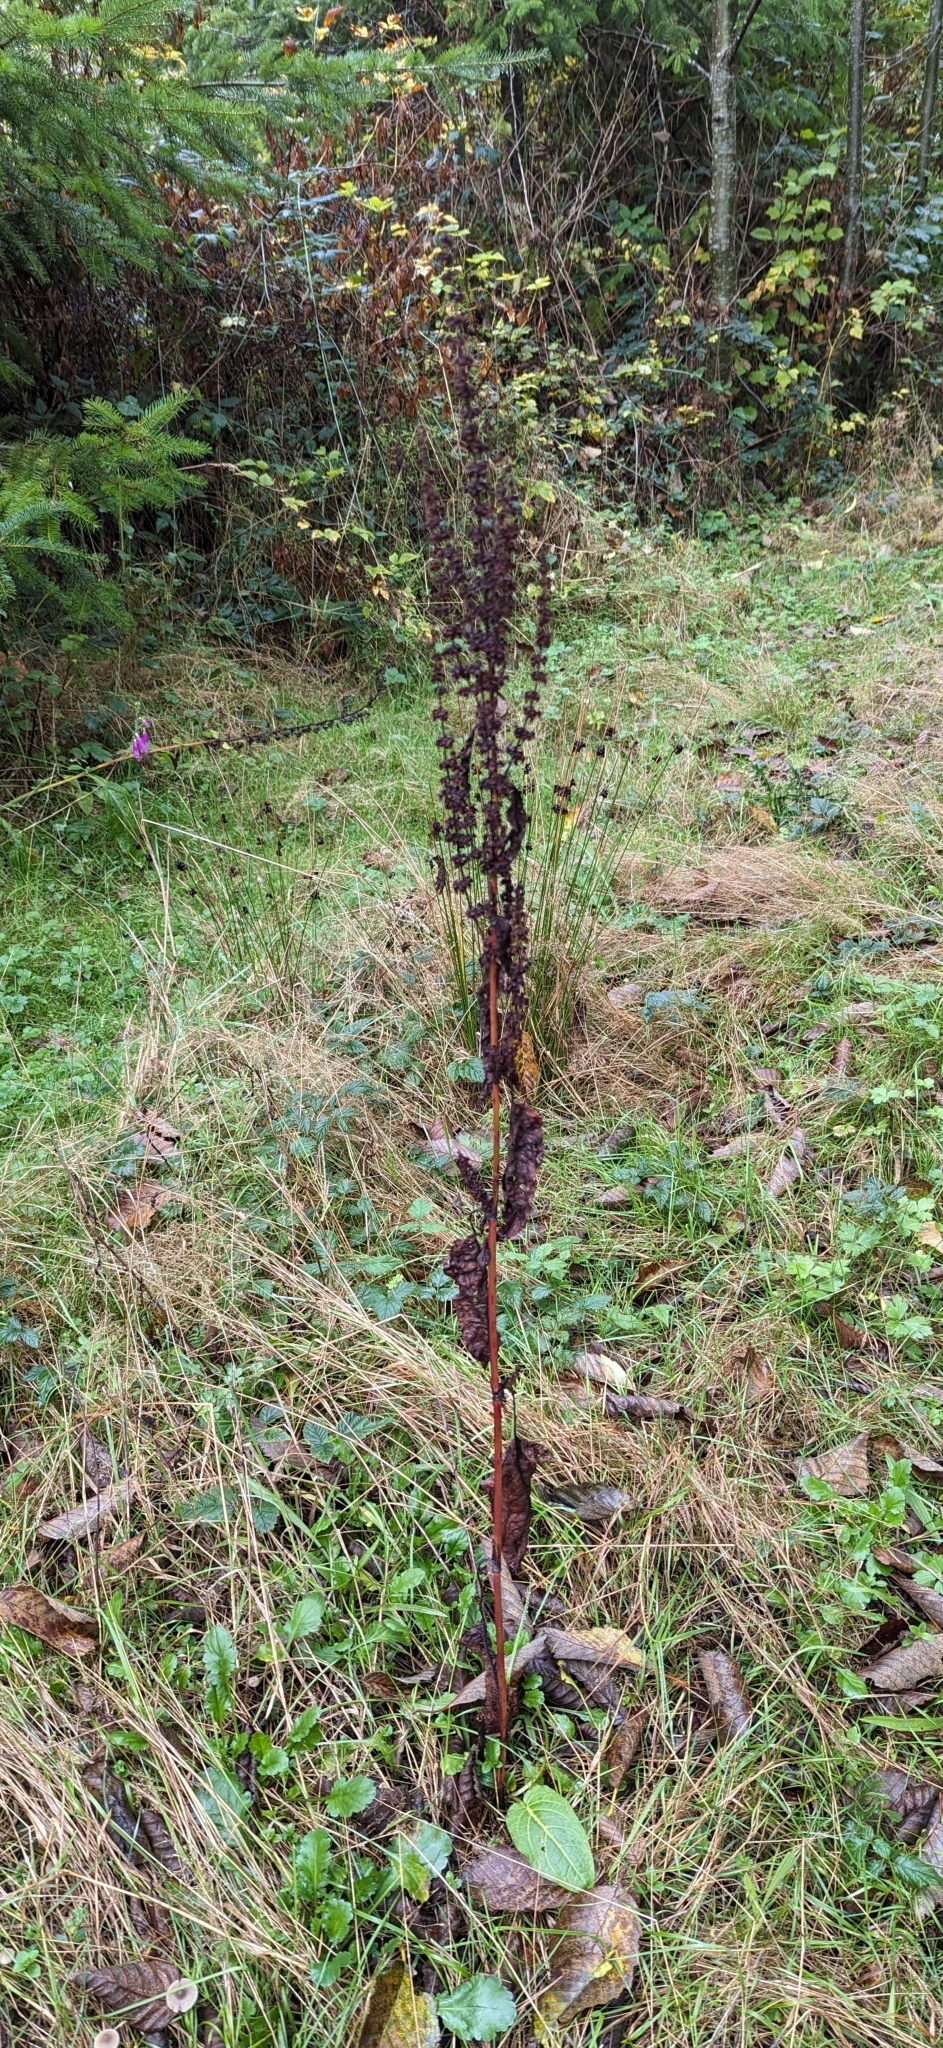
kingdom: Plantae
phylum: Tracheophyta
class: Magnoliopsida
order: Caryophyllales
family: Polygonaceae
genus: Rumex
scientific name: Rumex obtusifolius
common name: Bitter dock
